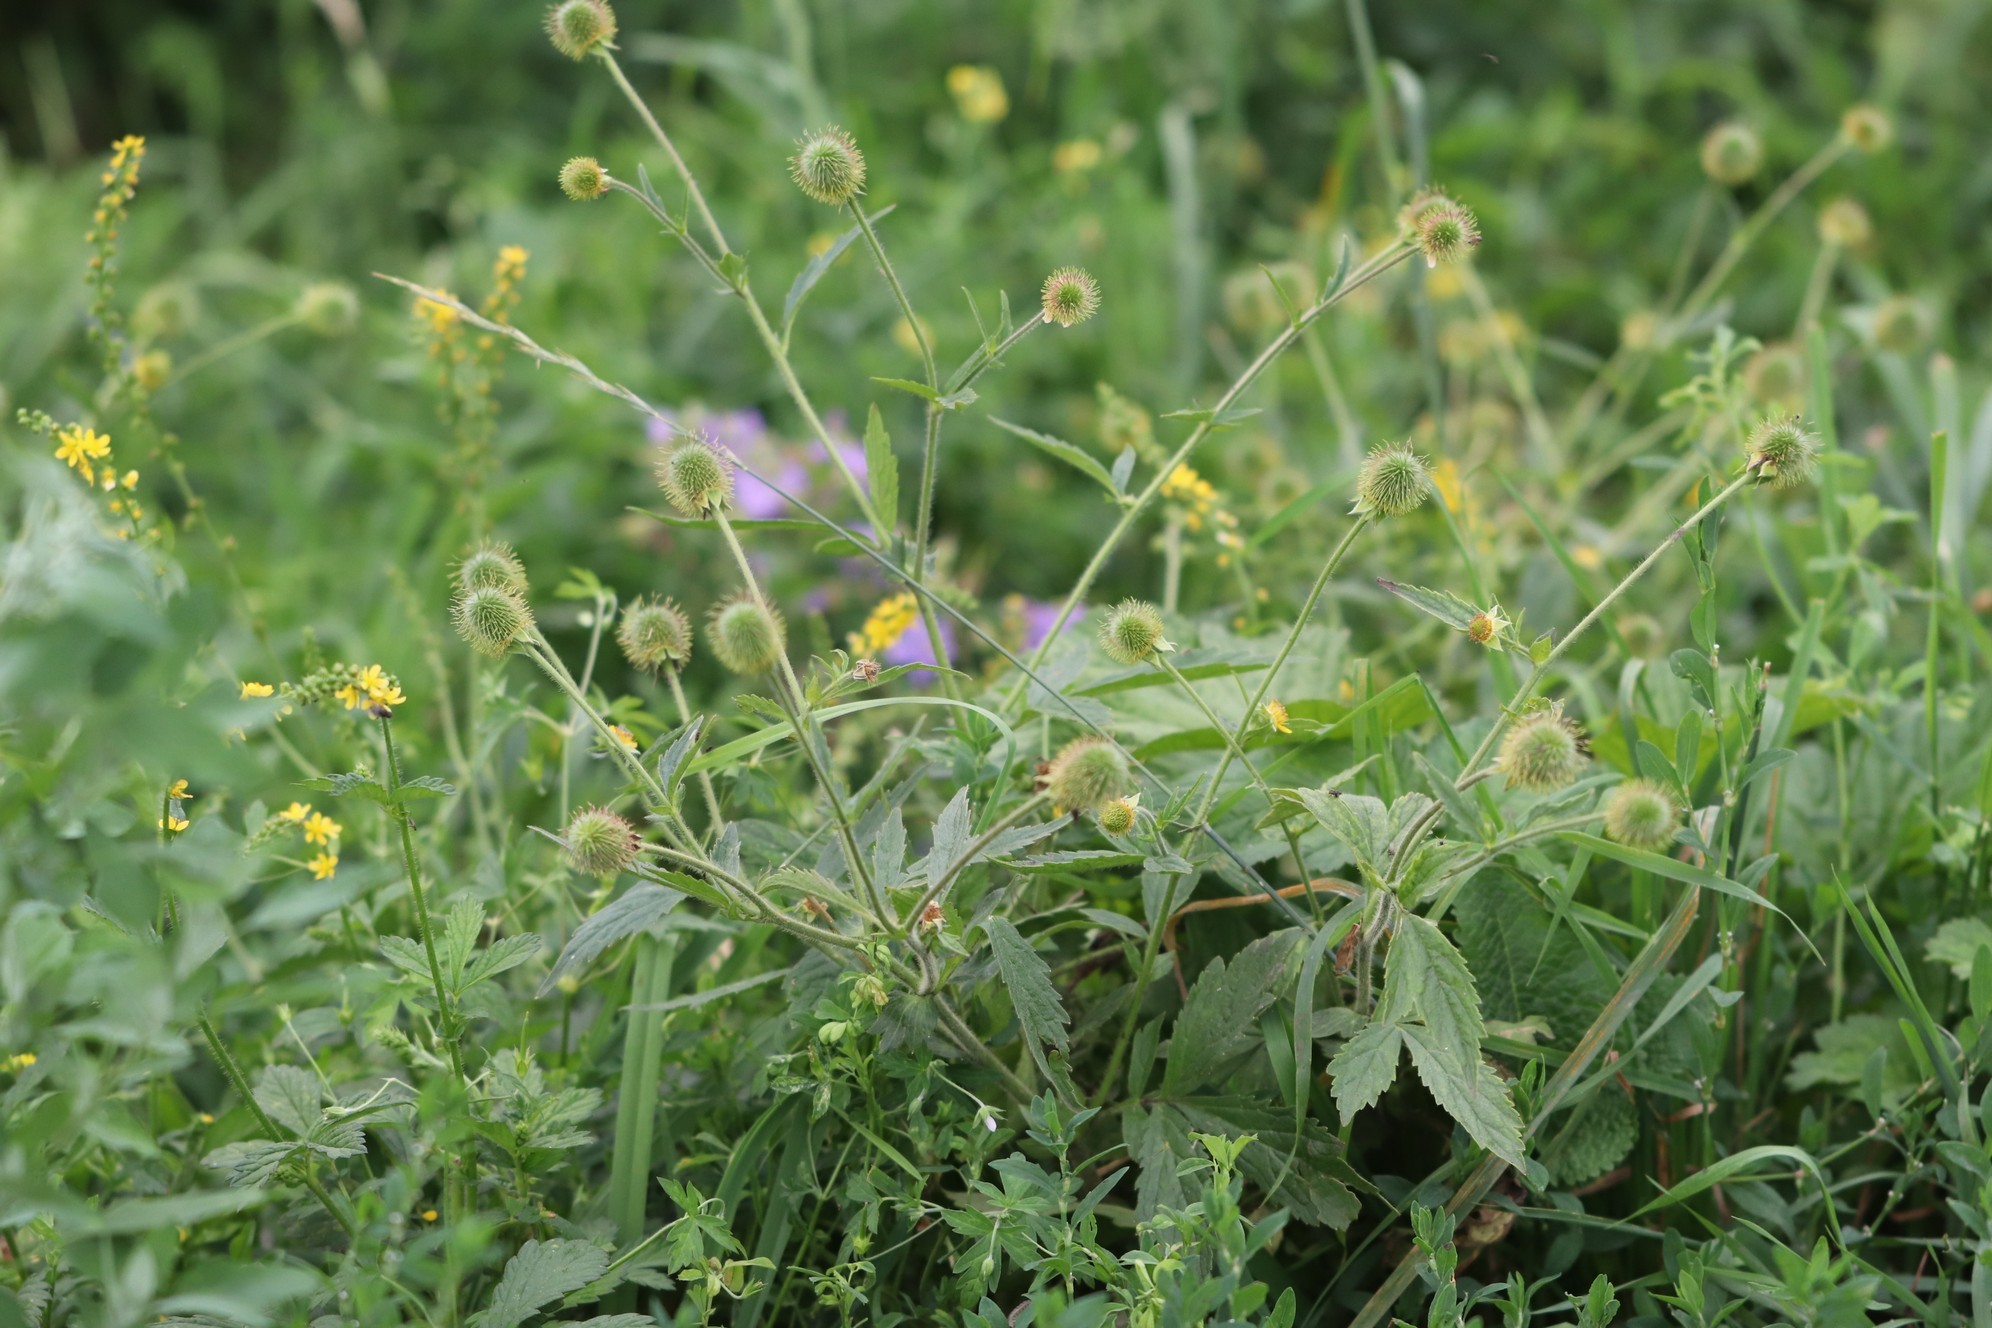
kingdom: Plantae
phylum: Tracheophyta
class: Magnoliopsida
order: Rosales
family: Rosaceae
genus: Geum
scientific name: Geum aleppicum
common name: Yellow avens
